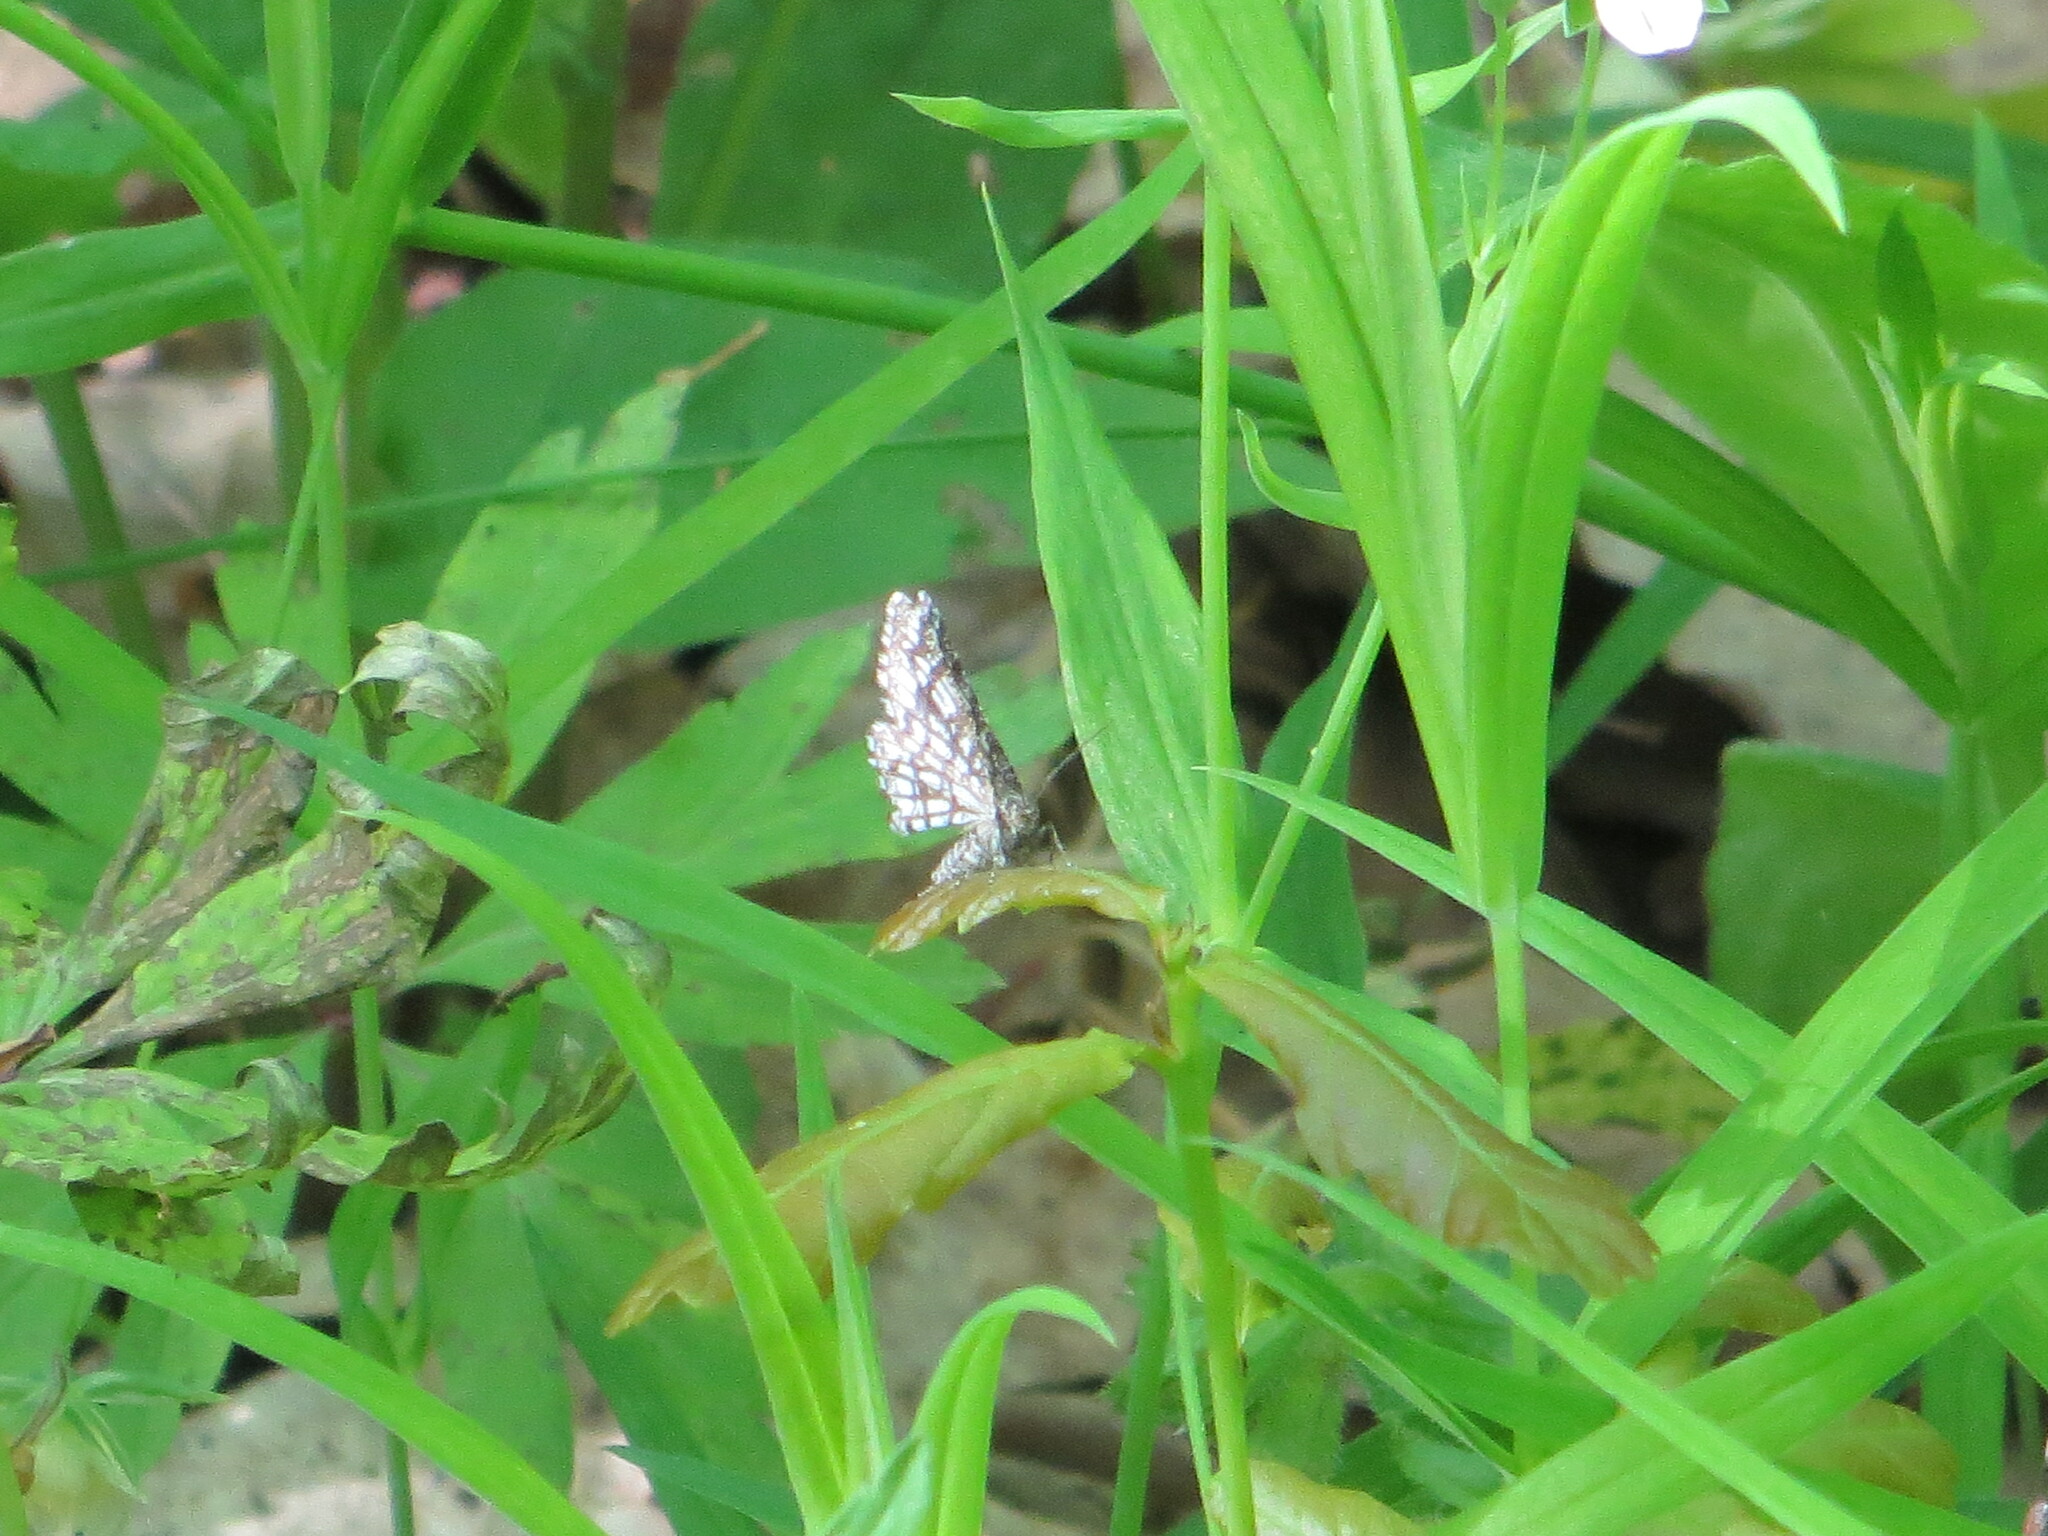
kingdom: Animalia
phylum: Arthropoda
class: Insecta
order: Lepidoptera
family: Geometridae
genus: Chiasmia
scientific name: Chiasmia clathrata
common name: Latticed heath
